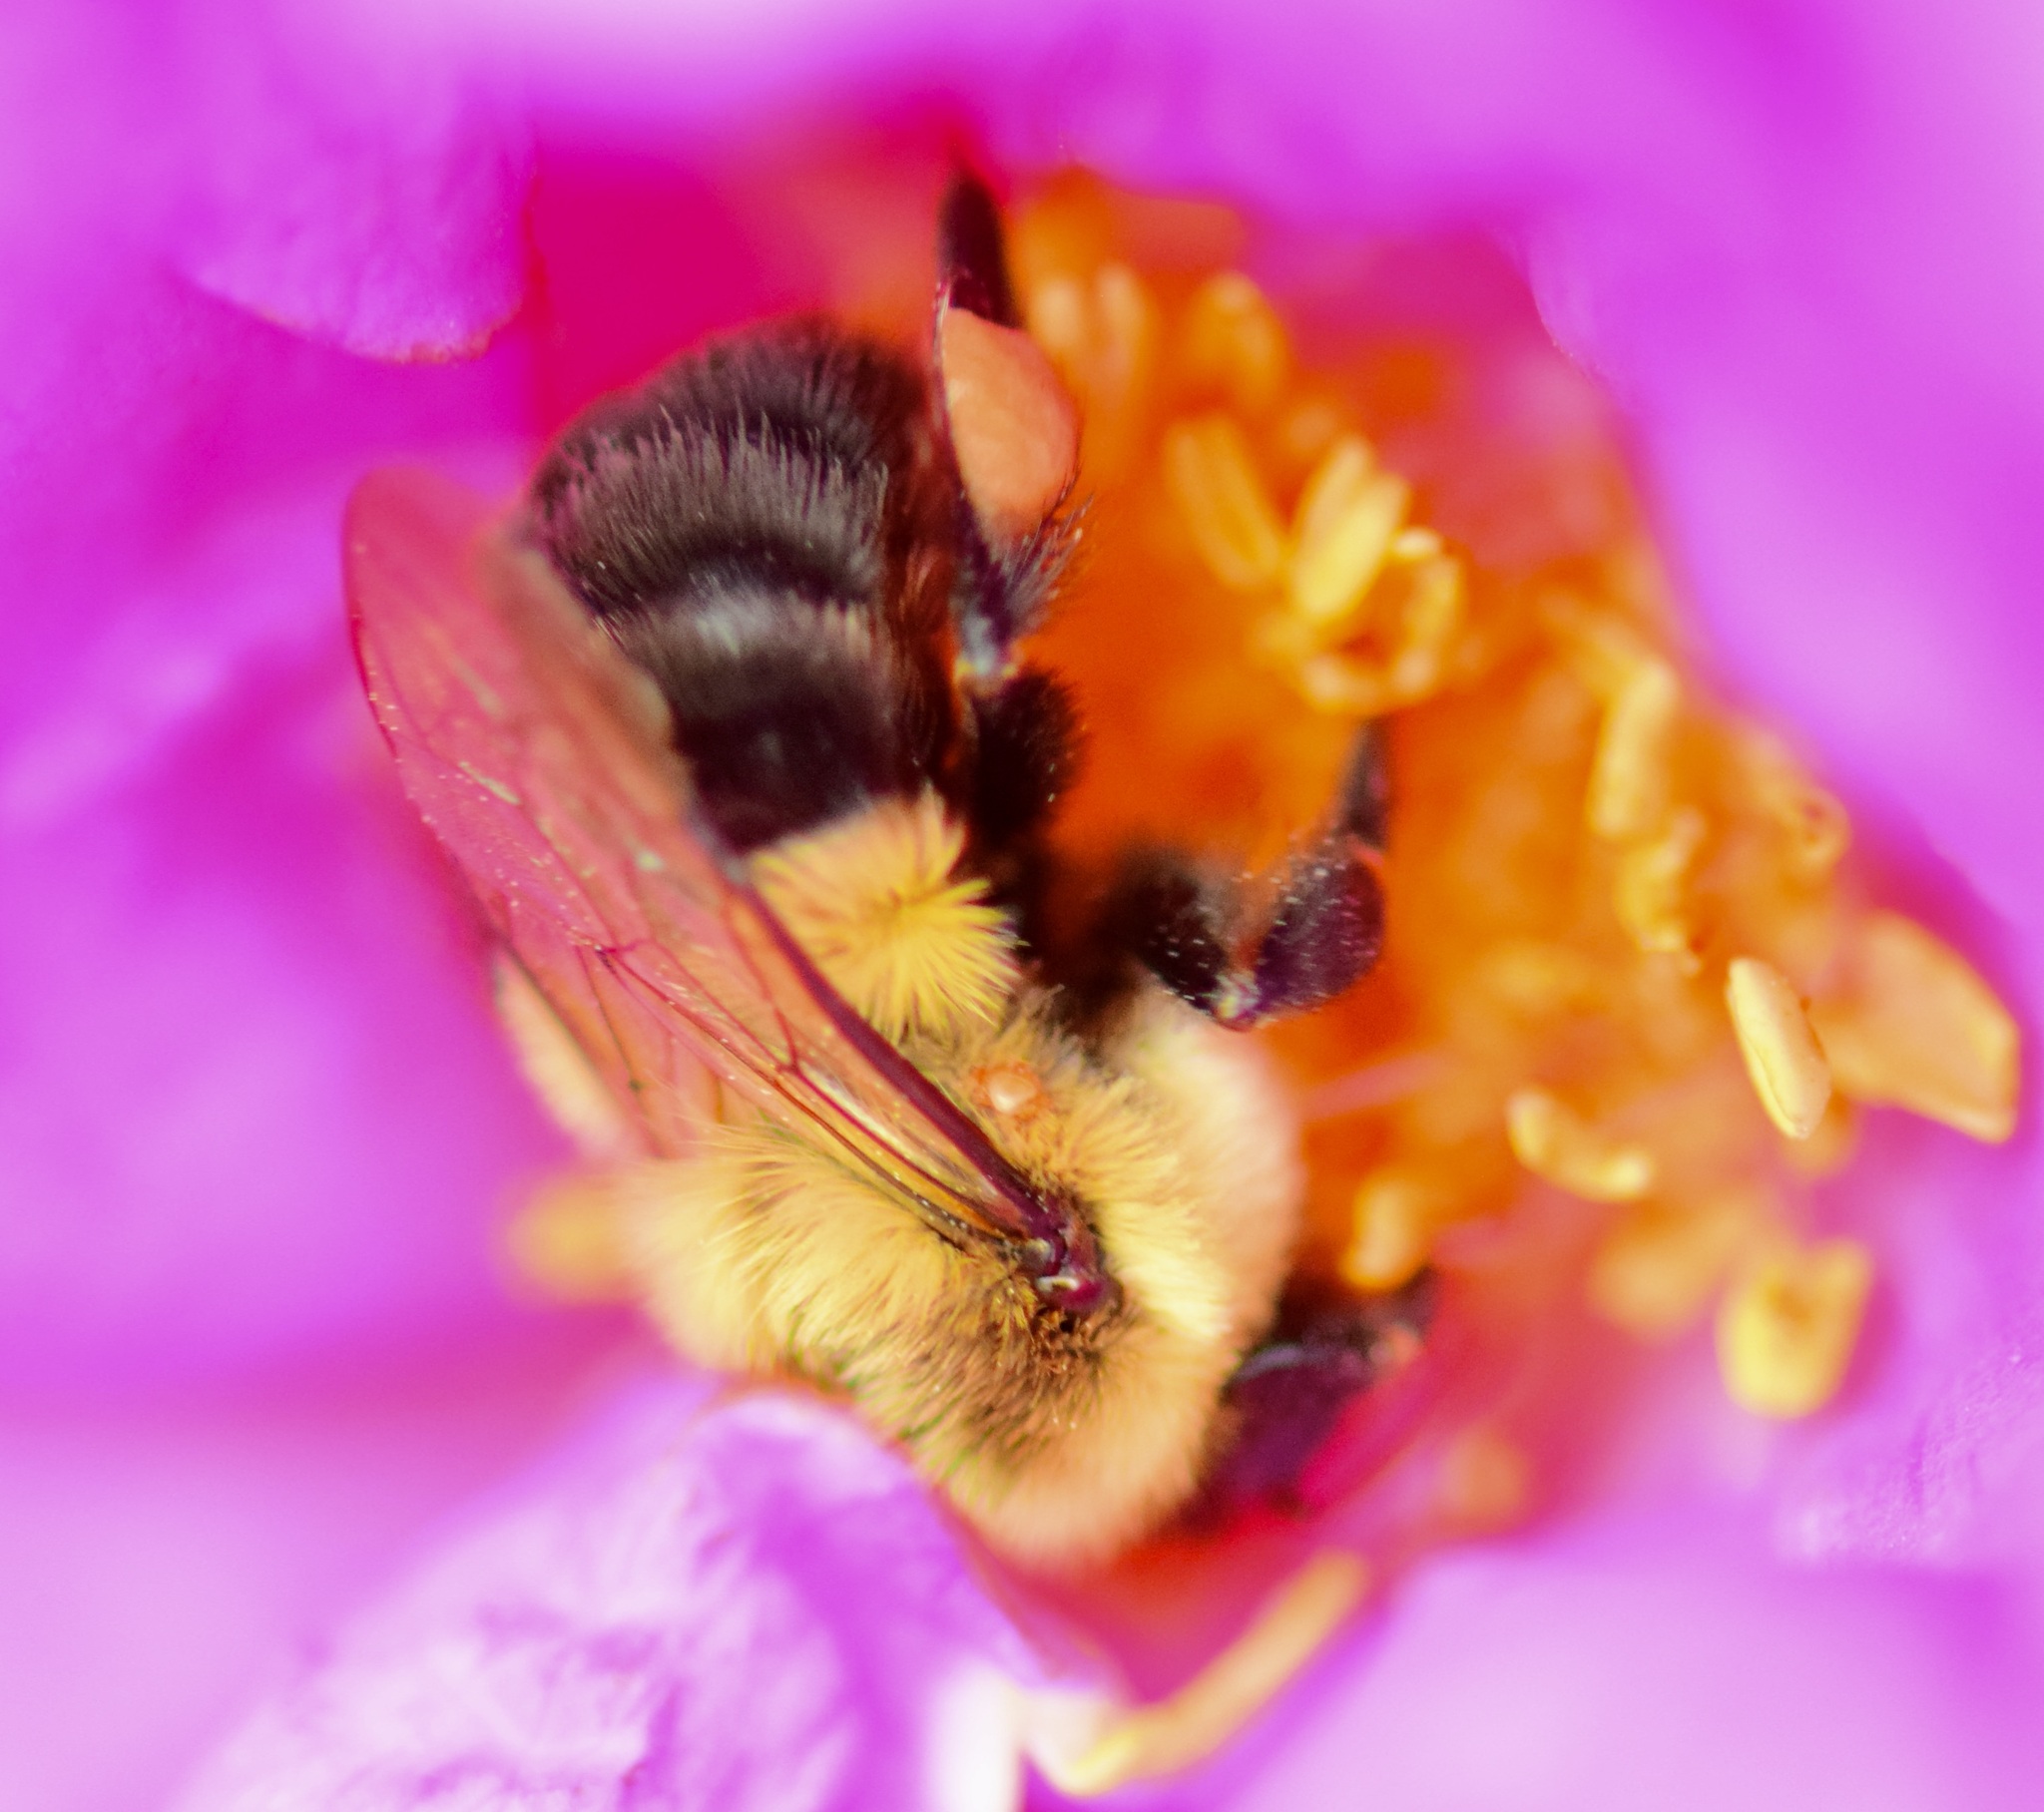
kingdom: Animalia
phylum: Arthropoda
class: Insecta
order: Hymenoptera
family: Apidae
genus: Bombus
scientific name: Bombus impatiens
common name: Common eastern bumble bee
